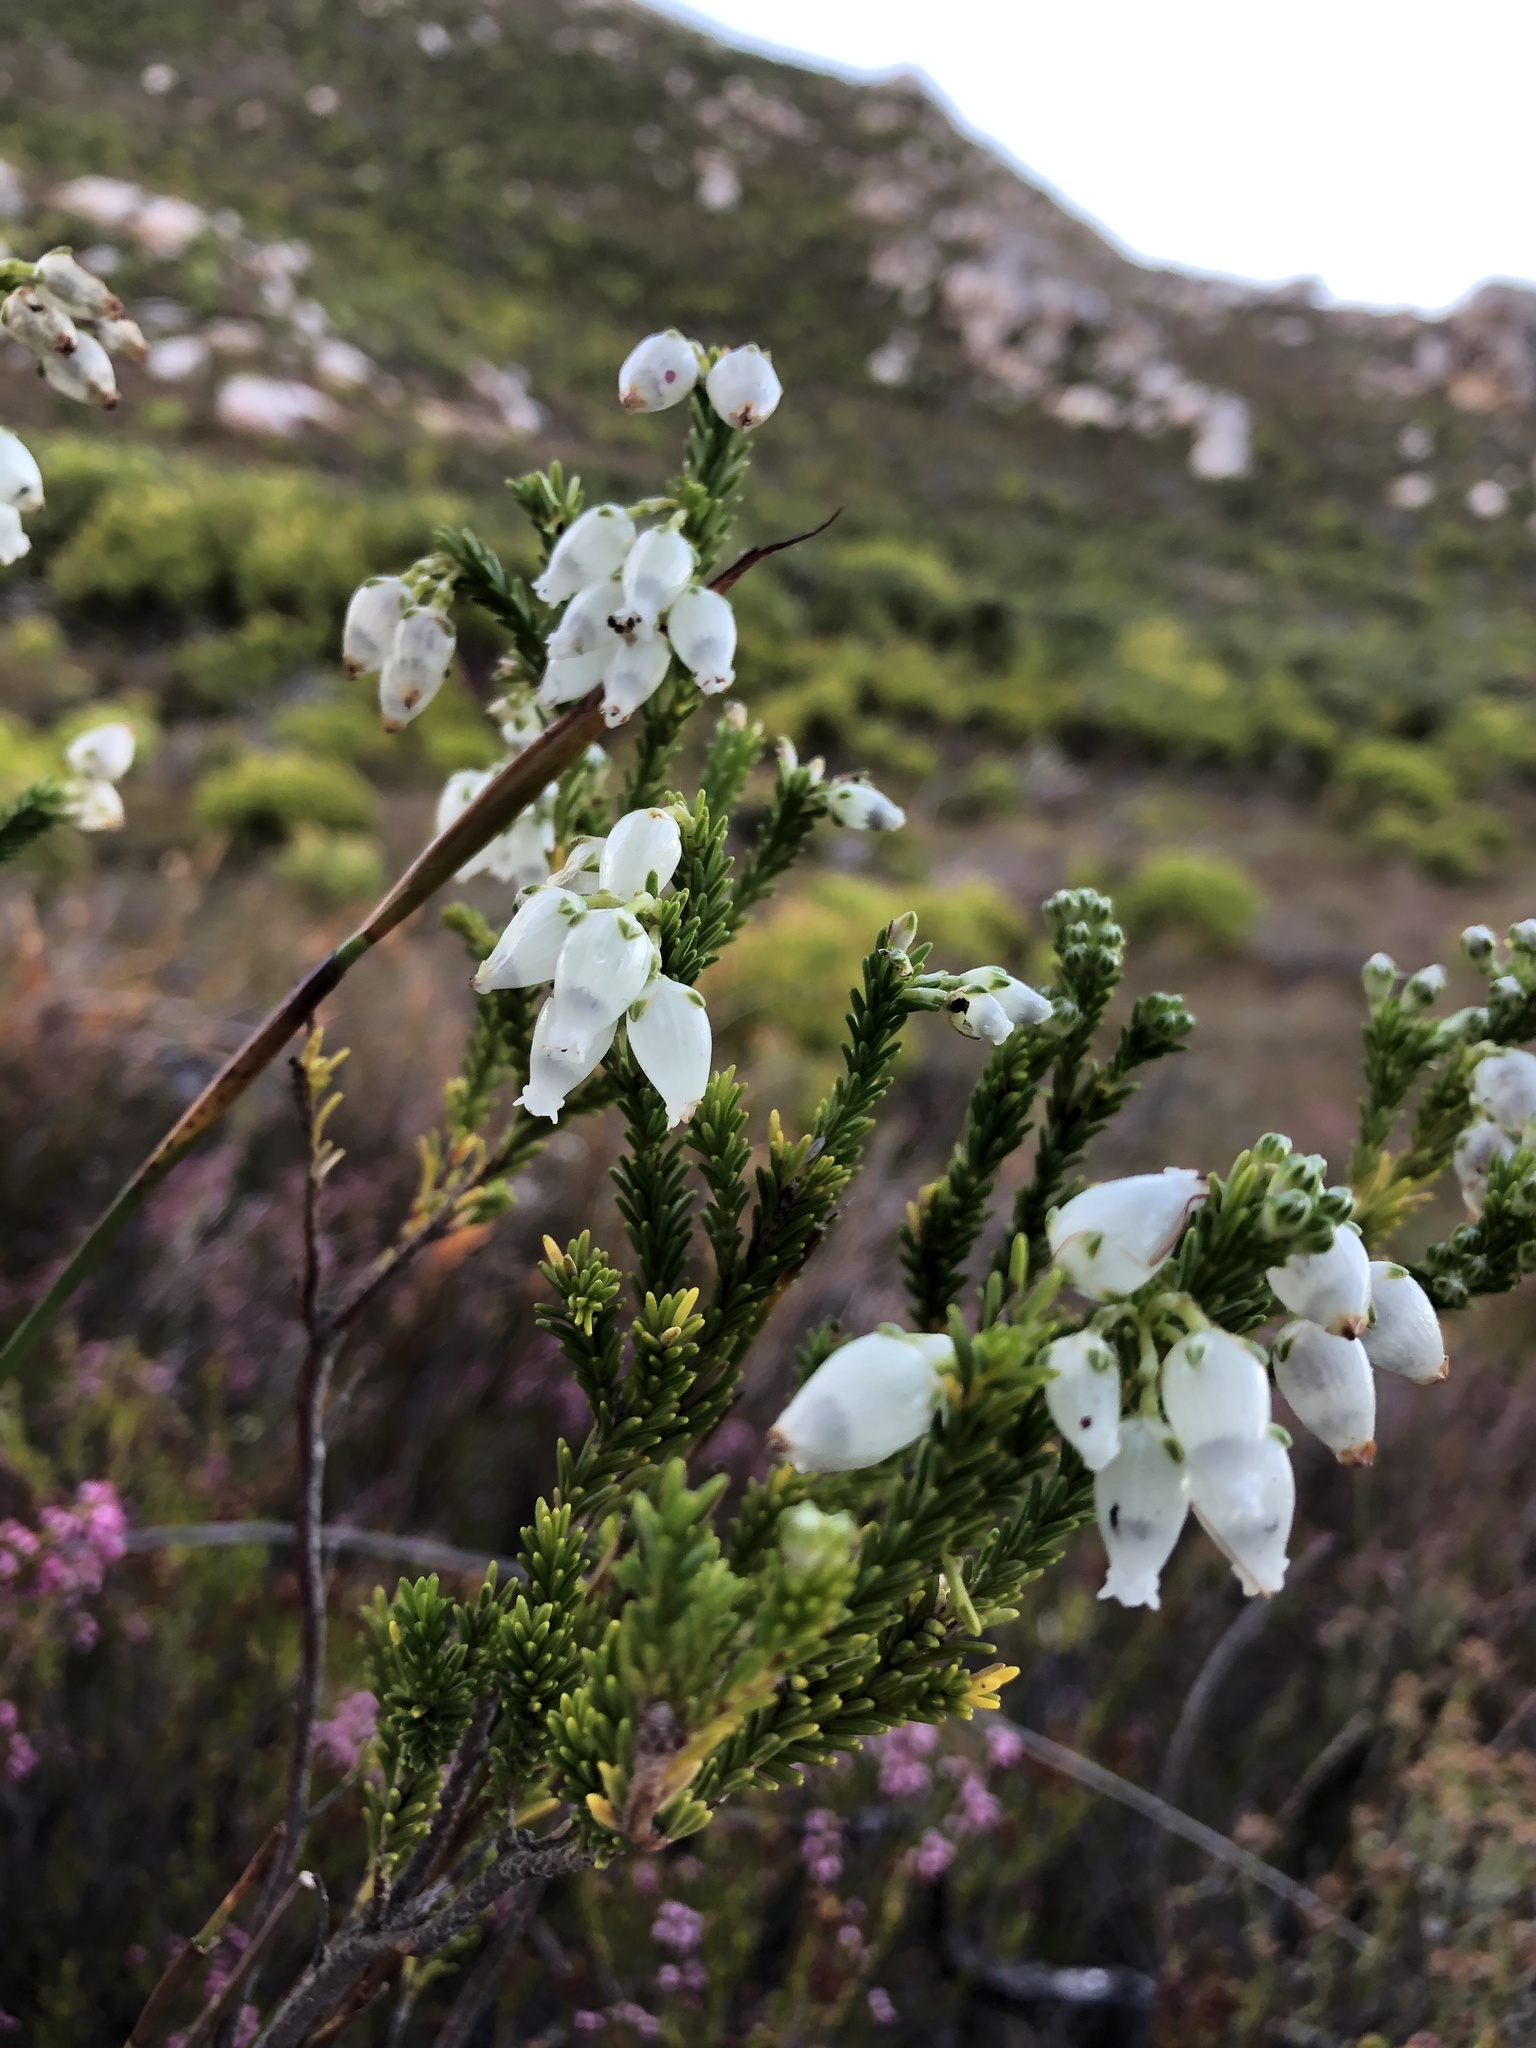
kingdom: Plantae
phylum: Tracheophyta
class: Magnoliopsida
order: Ericales
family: Ericaceae
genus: Erica
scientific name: Erica physodes
